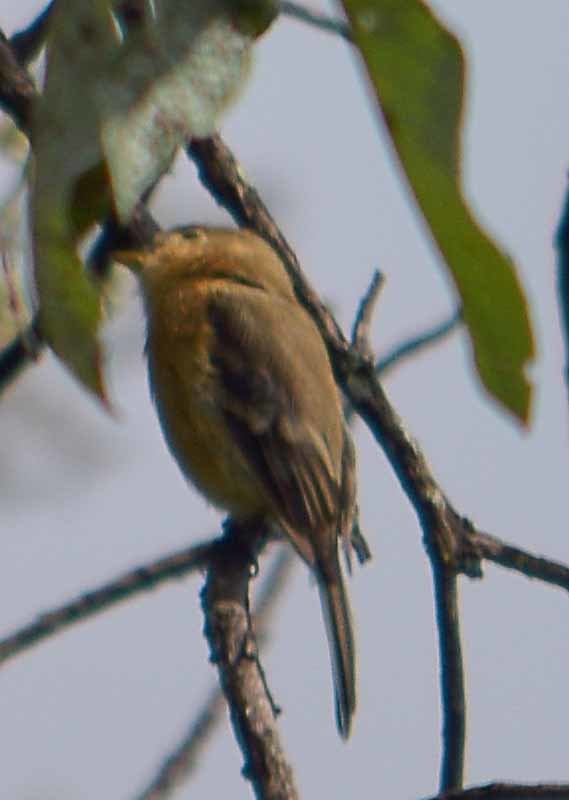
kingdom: Animalia
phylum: Chordata
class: Aves
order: Passeriformes
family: Tyrannidae
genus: Empidonax
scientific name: Empidonax fulvifrons
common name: Buff-breasted flycatcher
